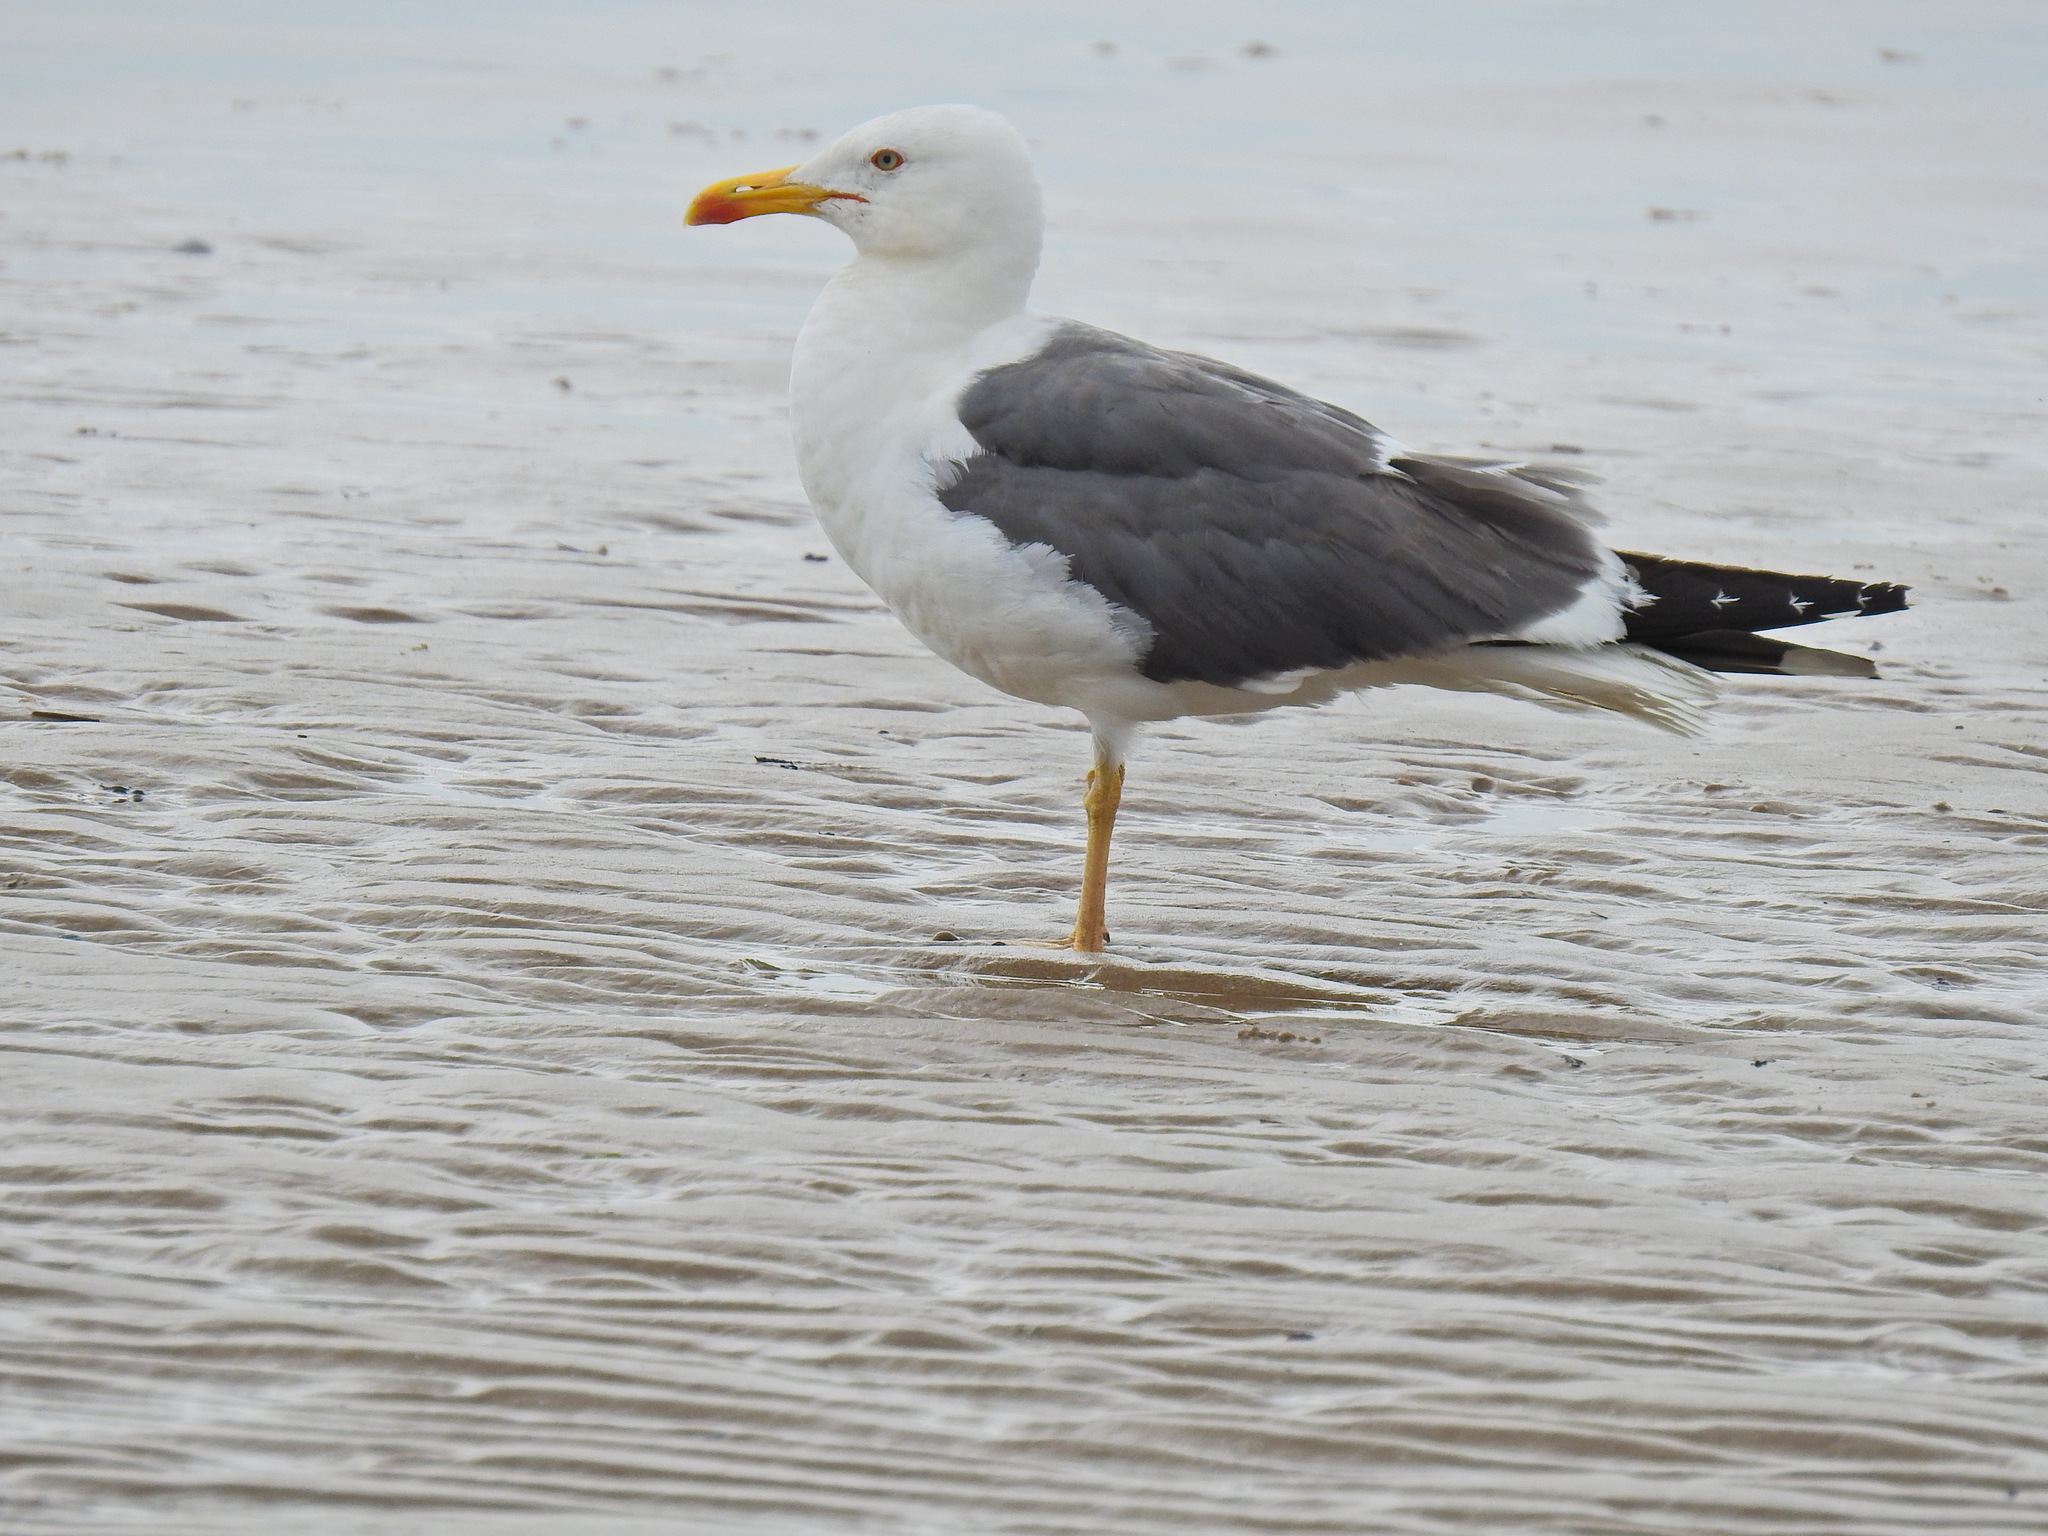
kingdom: Animalia
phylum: Chordata
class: Aves
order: Charadriiformes
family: Laridae
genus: Larus
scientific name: Larus fuscus
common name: Lesser black-backed gull
